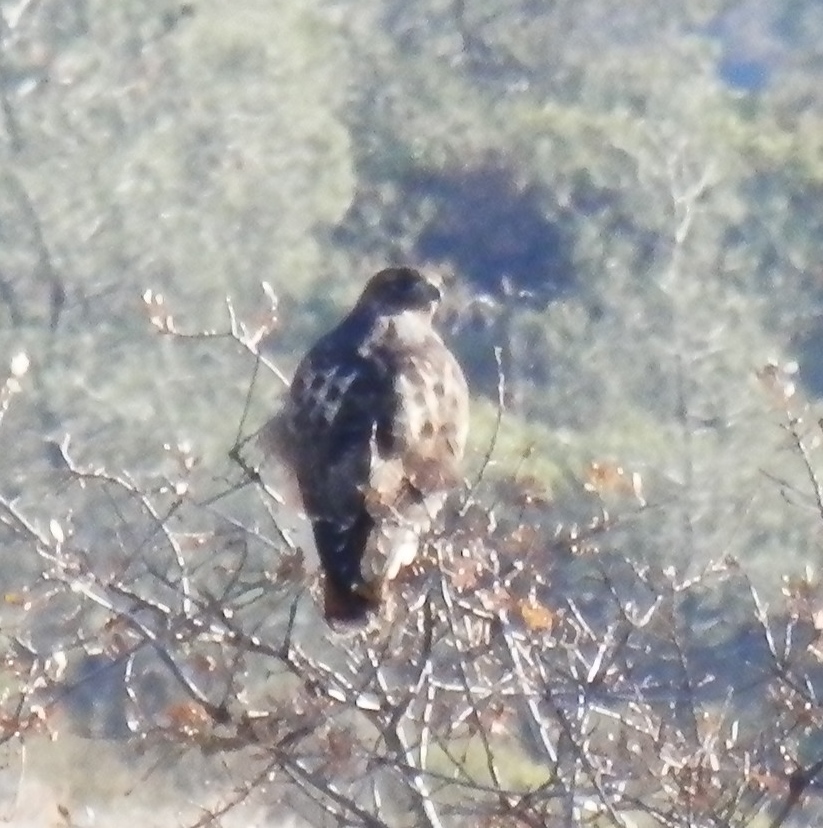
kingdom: Animalia
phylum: Chordata
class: Aves
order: Accipitriformes
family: Accipitridae
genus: Buteo
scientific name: Buteo jamaicensis
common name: Red-tailed hawk
